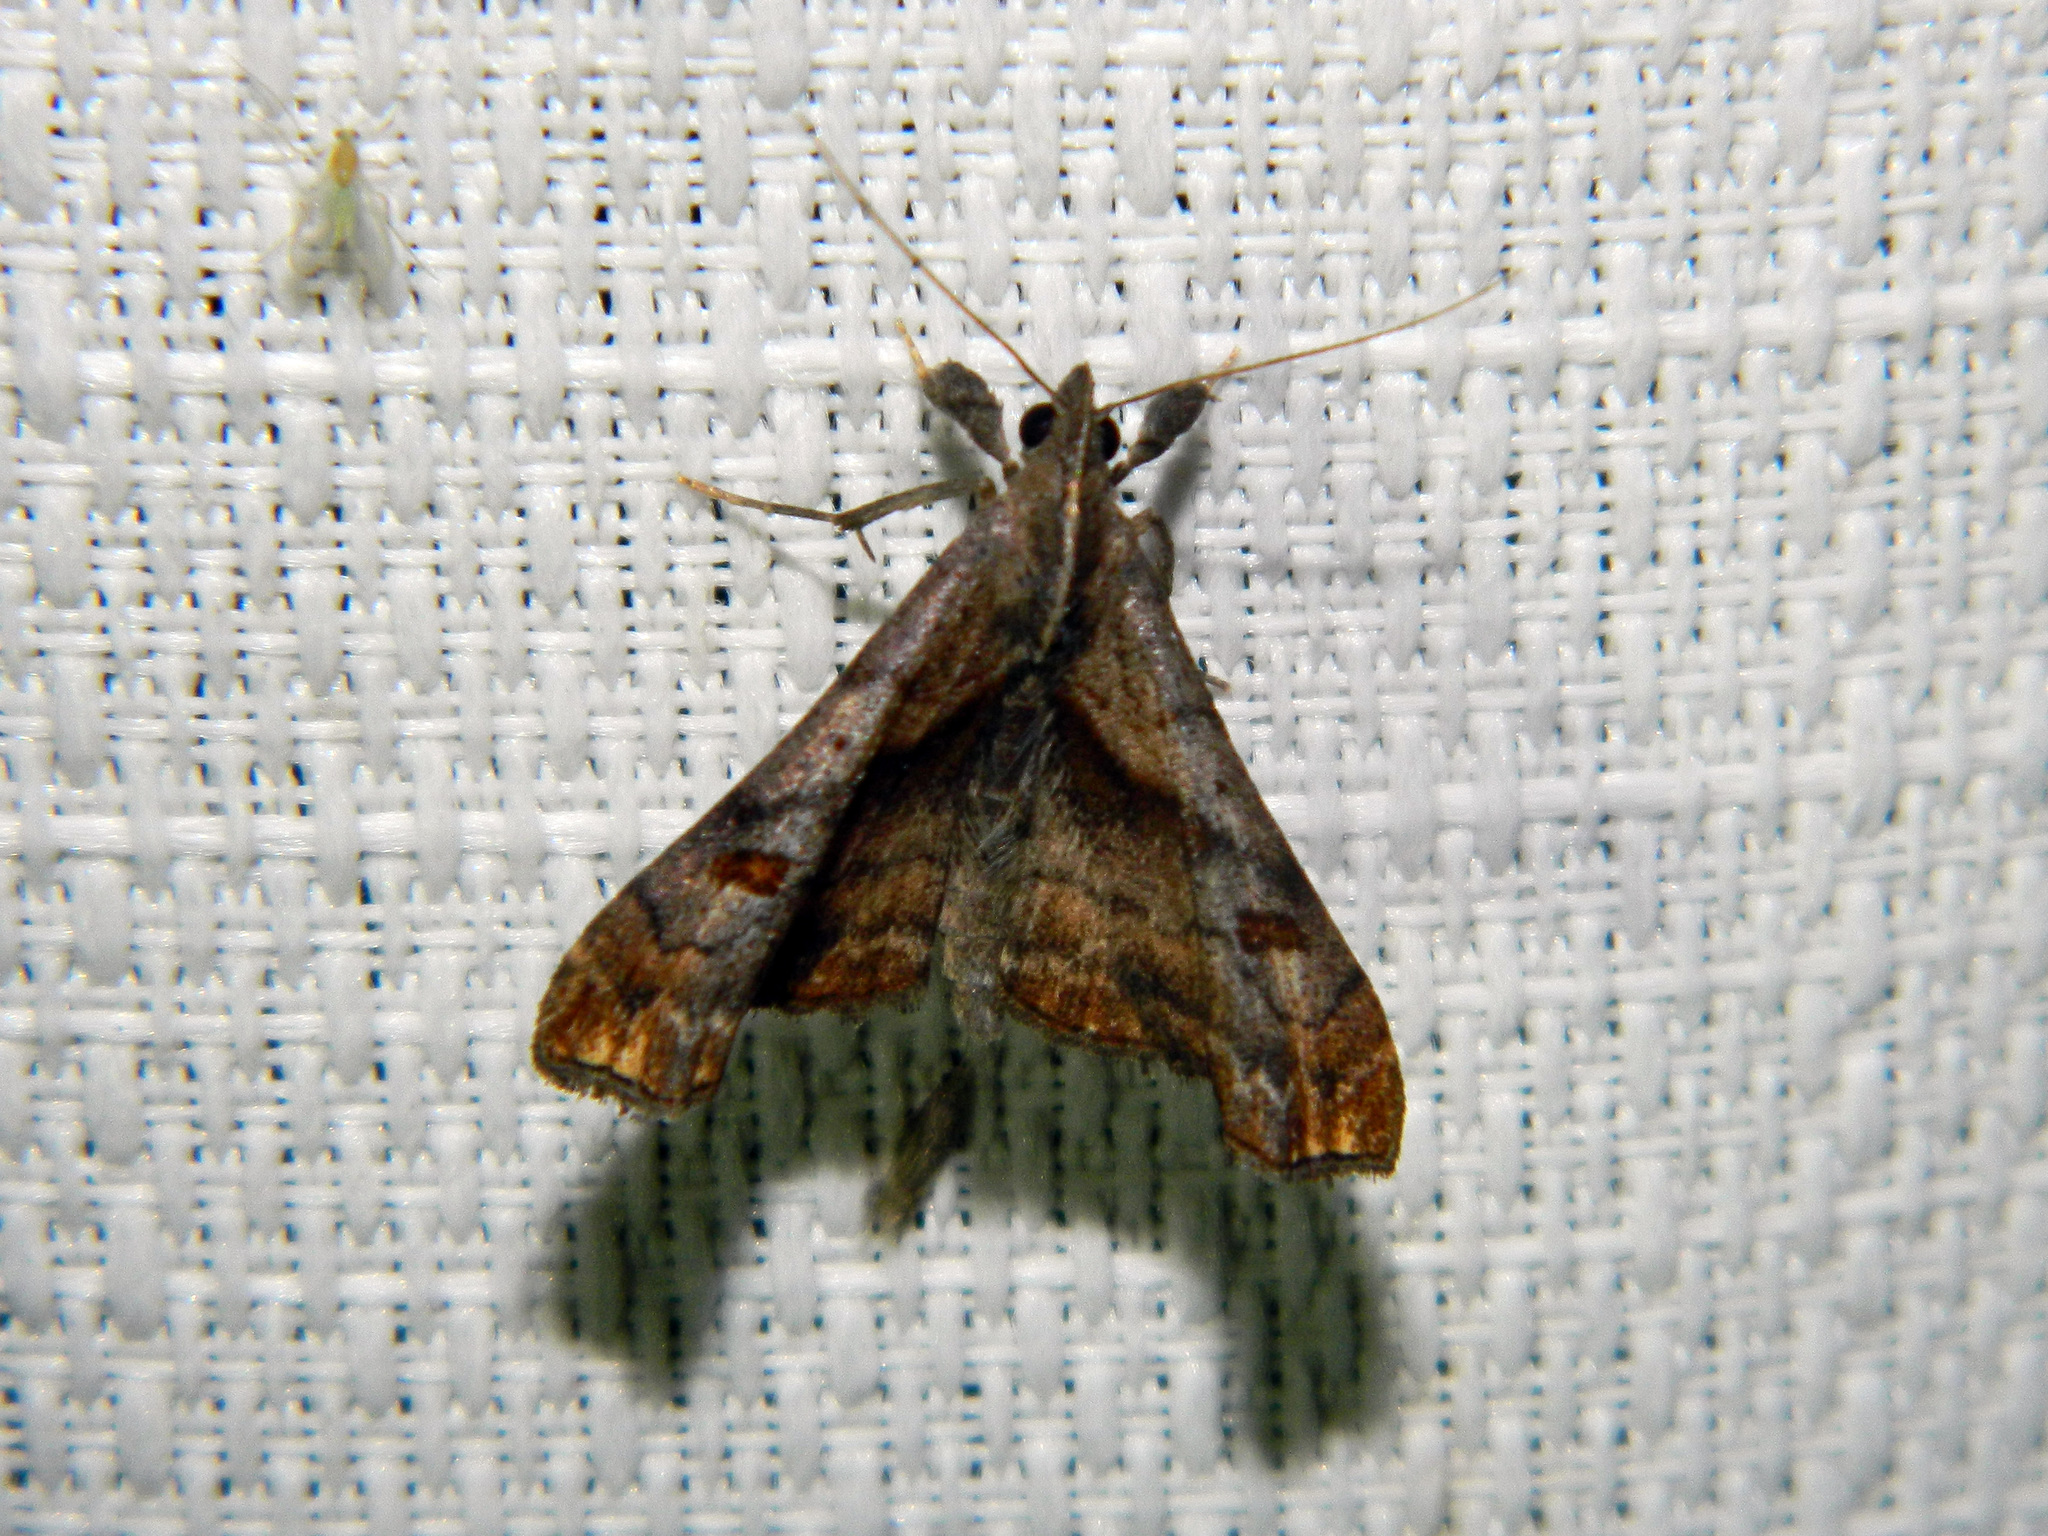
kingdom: Animalia
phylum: Arthropoda
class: Insecta
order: Lepidoptera
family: Erebidae
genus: Palthis
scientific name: Palthis angulalis
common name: Dark-spotted palthis moth
